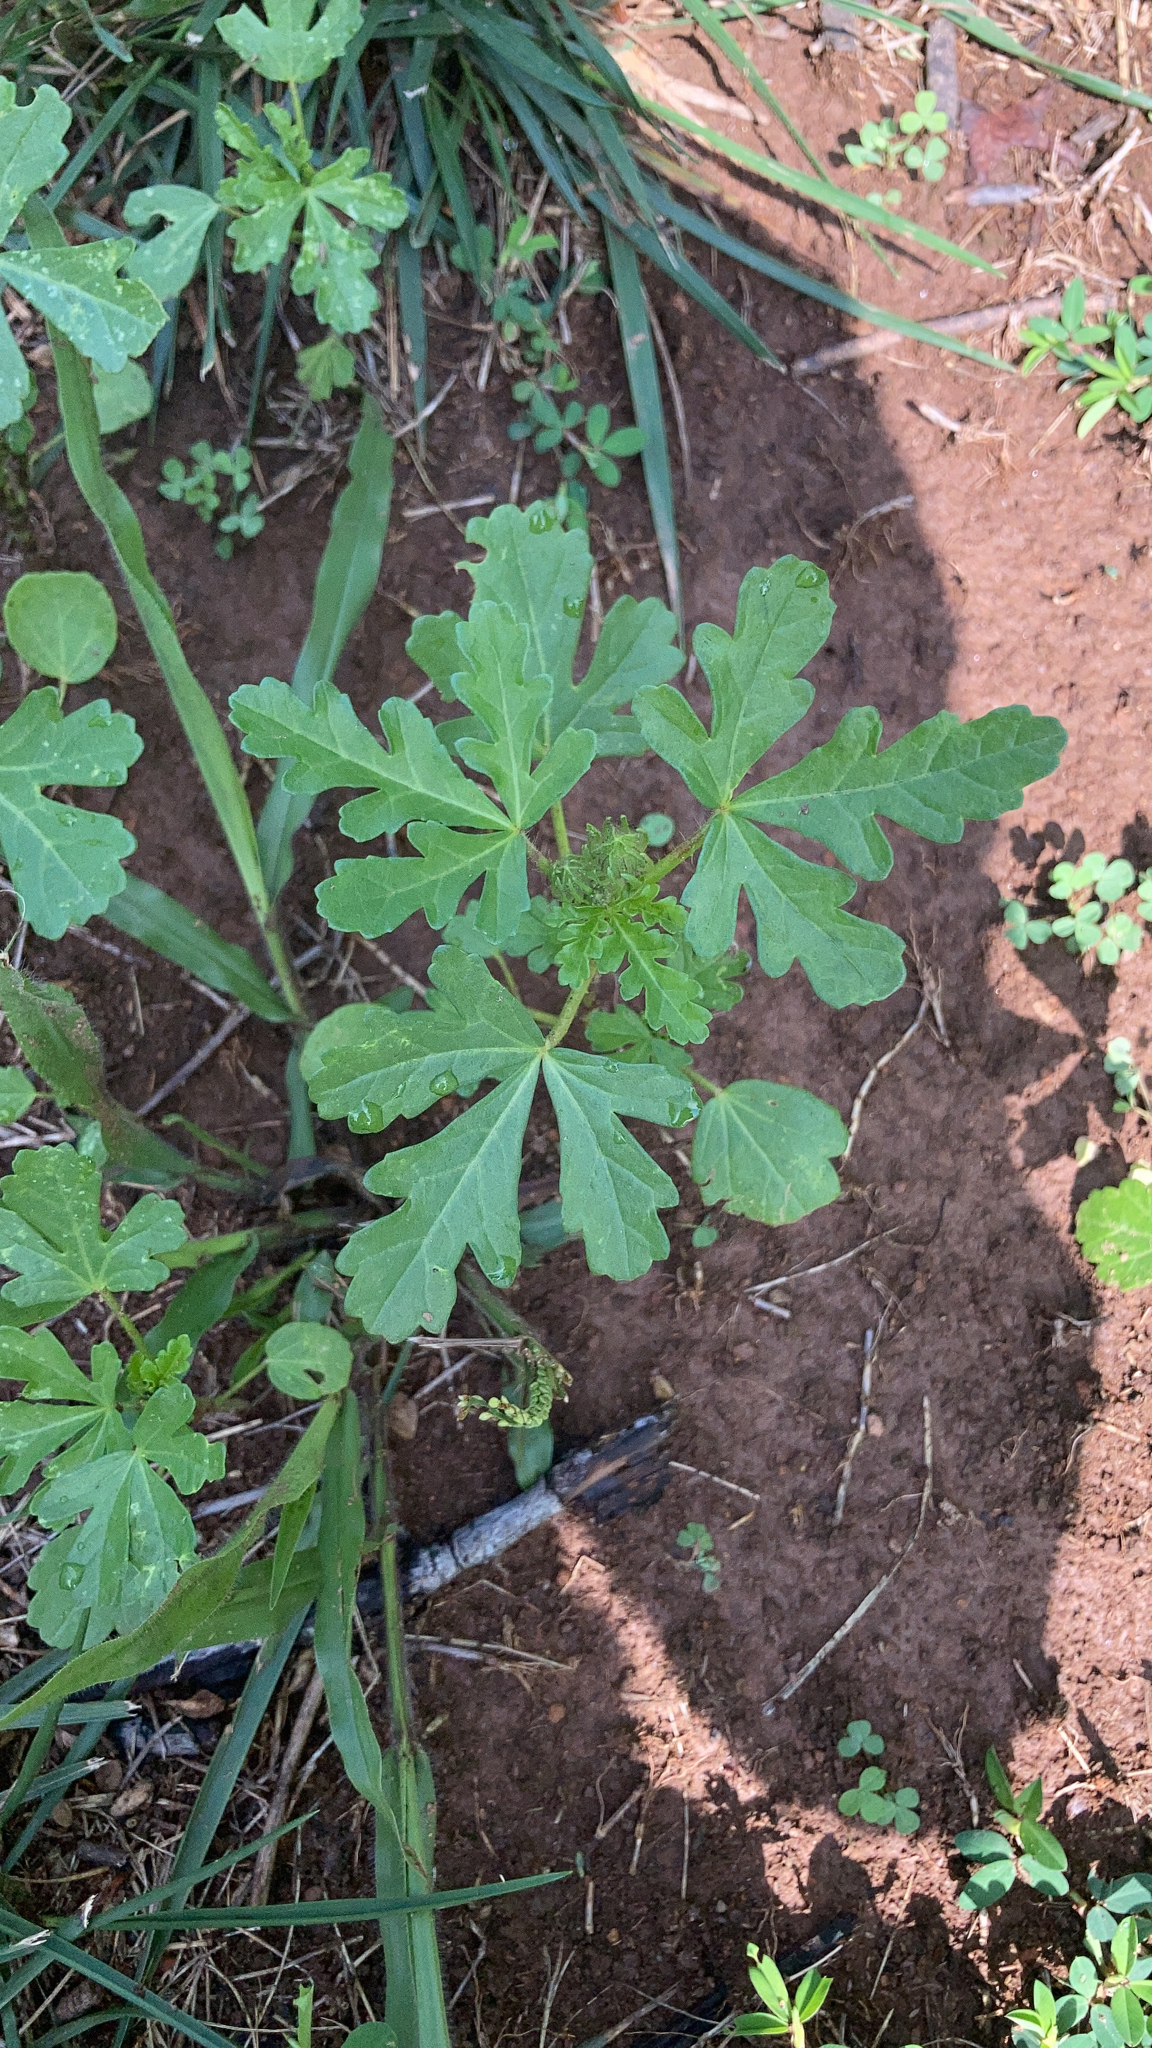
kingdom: Plantae
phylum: Tracheophyta
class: Magnoliopsida
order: Malvales
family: Malvaceae
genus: Hibiscus
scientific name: Hibiscus trionum
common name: Bladder ketmia
